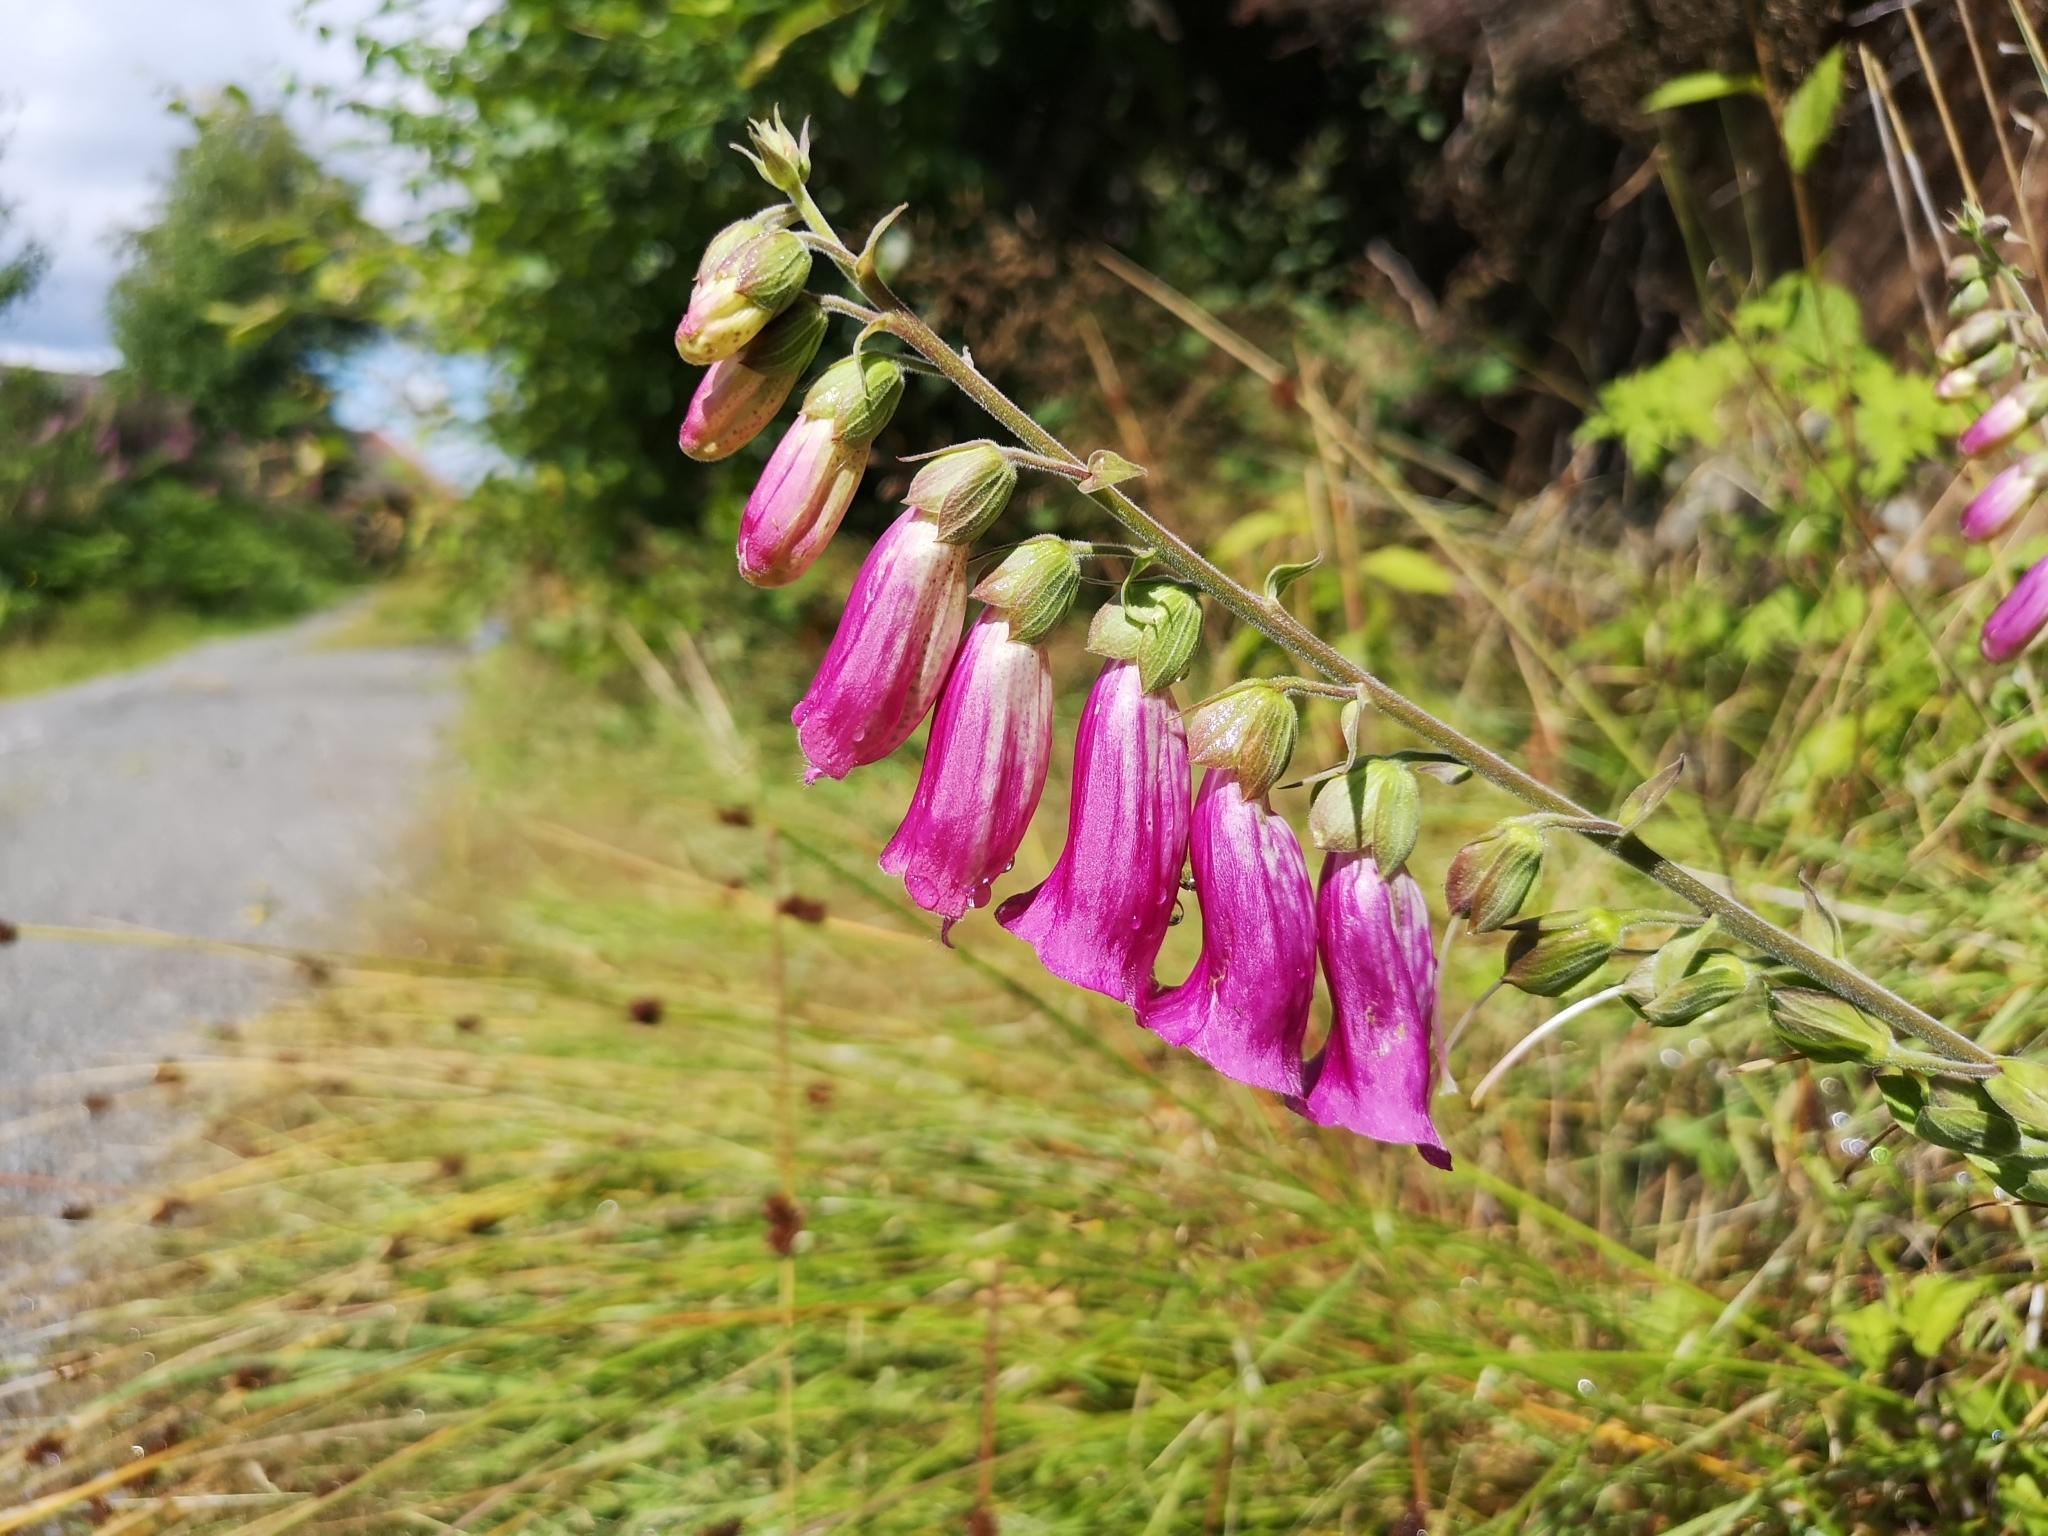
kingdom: Plantae
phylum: Tracheophyta
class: Magnoliopsida
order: Lamiales
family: Plantaginaceae
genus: Digitalis
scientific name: Digitalis purpurea
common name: Foxglove
